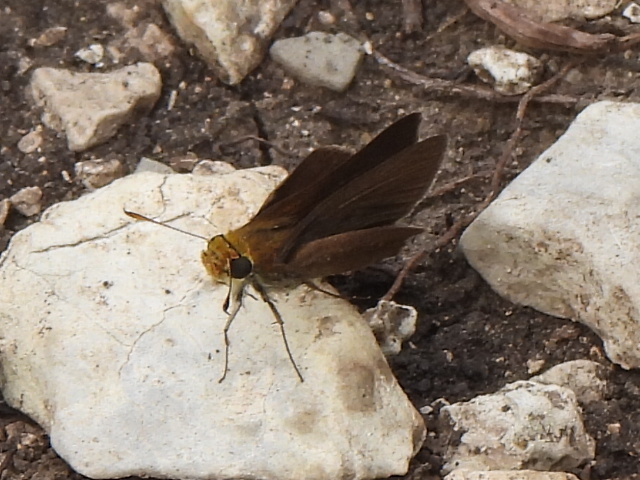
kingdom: Animalia
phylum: Arthropoda
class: Insecta
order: Lepidoptera
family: Hesperiidae
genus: Euphyes
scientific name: Euphyes vestris
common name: Dun skipper
